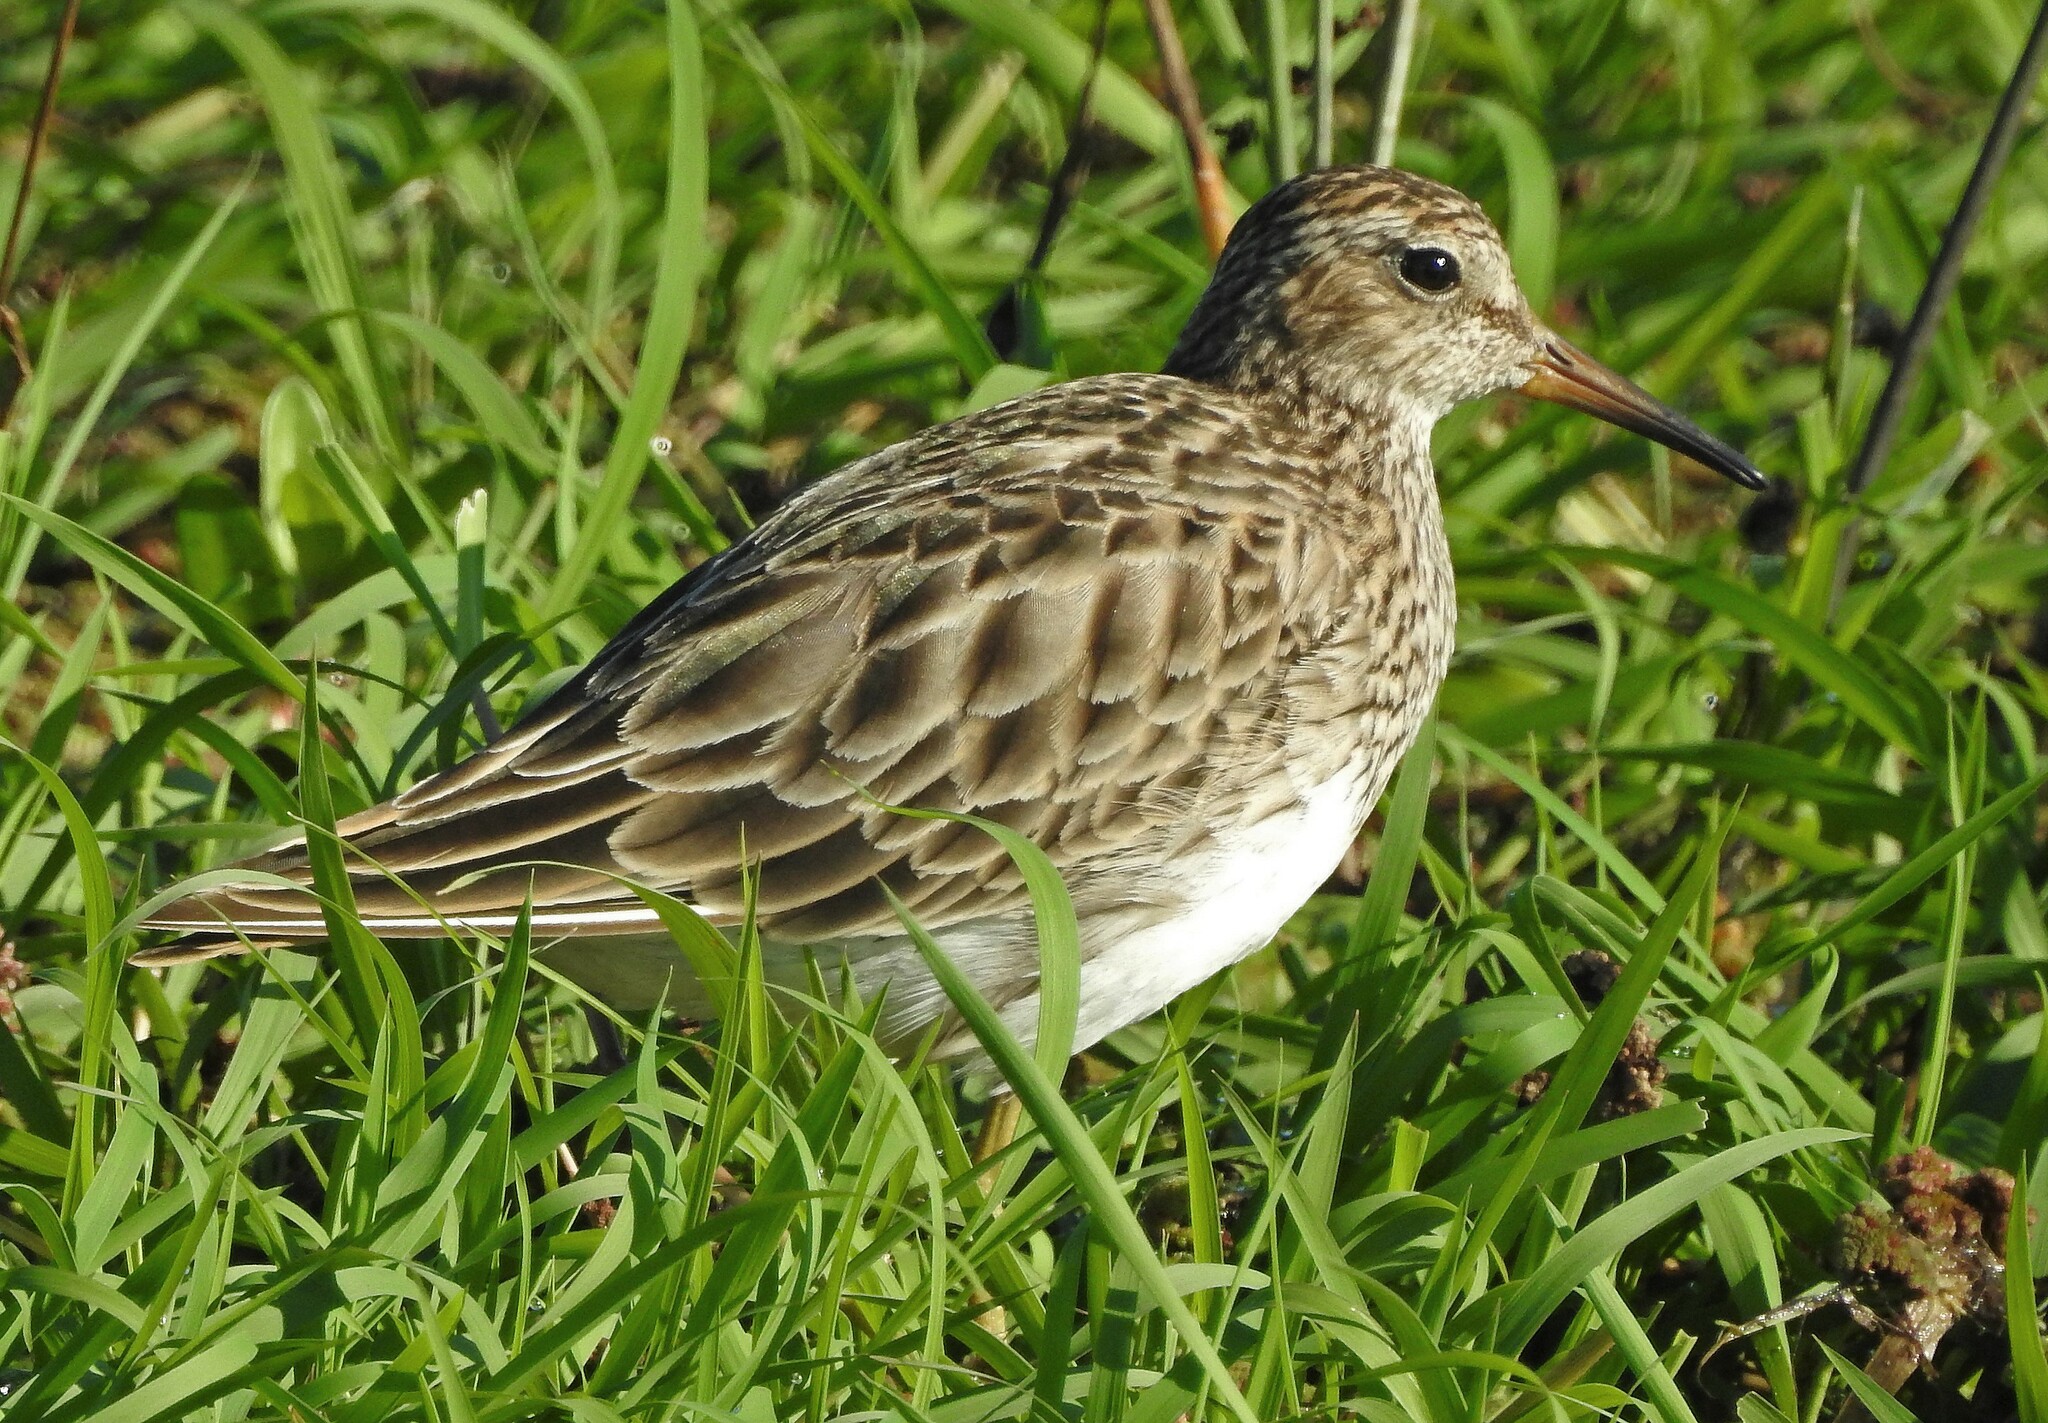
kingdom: Animalia
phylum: Chordata
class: Aves
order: Charadriiformes
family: Scolopacidae
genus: Calidris
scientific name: Calidris melanotos
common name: Pectoral sandpiper
